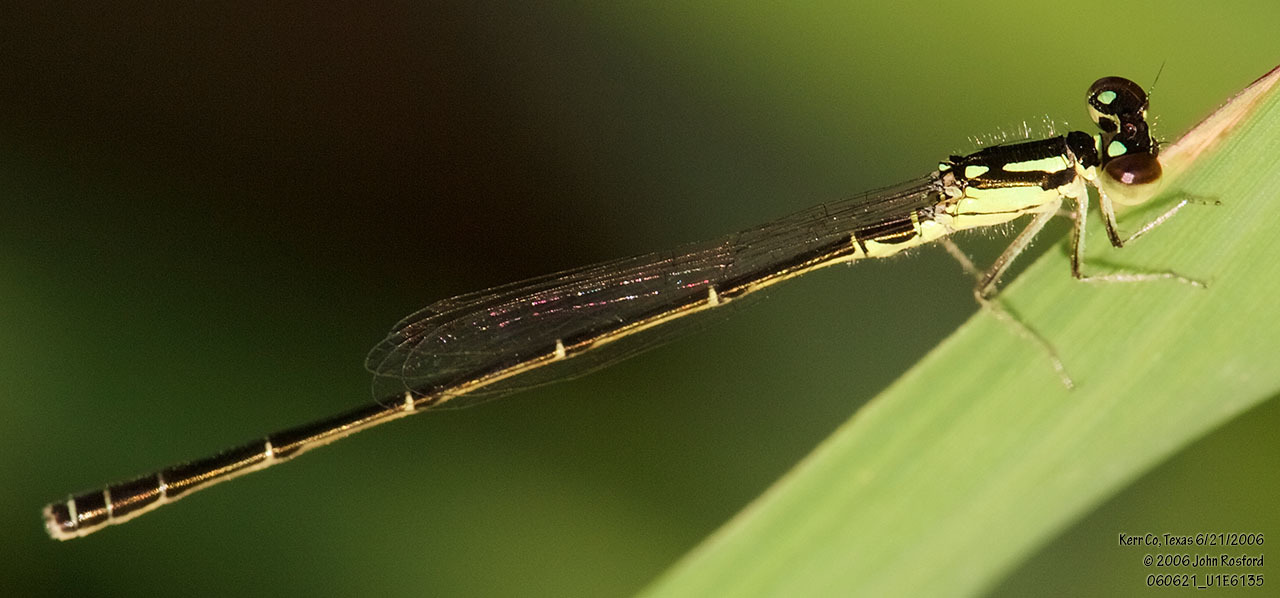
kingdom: Animalia
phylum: Arthropoda
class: Insecta
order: Odonata
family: Coenagrionidae
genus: Ischnura
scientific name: Ischnura posita
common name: Fragile forktail
